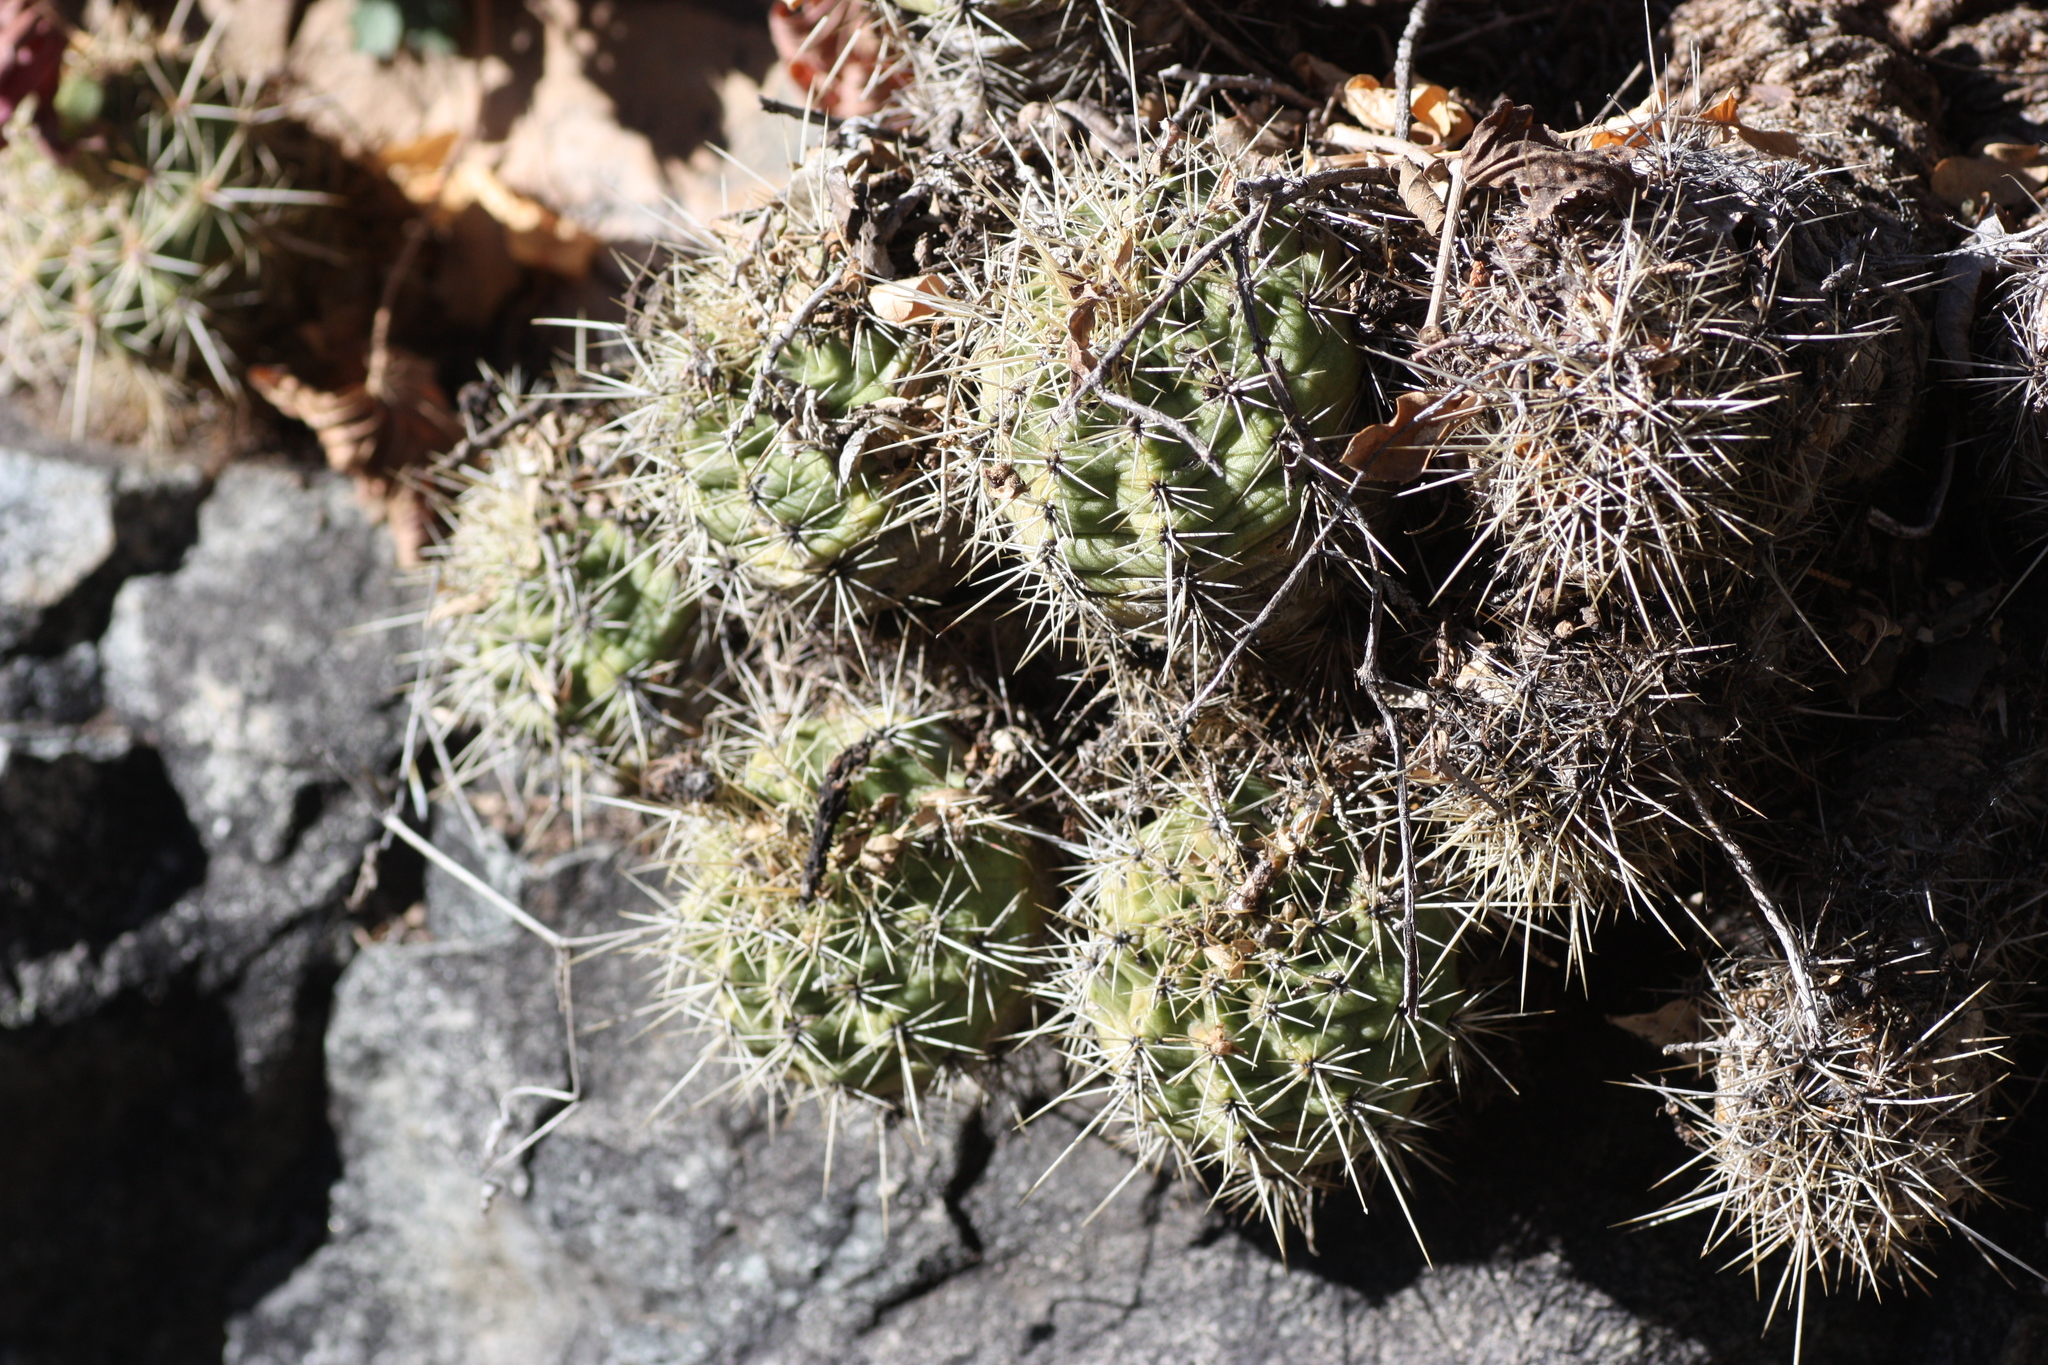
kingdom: Plantae
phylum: Tracheophyta
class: Magnoliopsida
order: Caryophyllales
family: Cactaceae
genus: Echinocereus
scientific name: Echinocereus coccineus
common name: Scarlet hedgehog cactus
